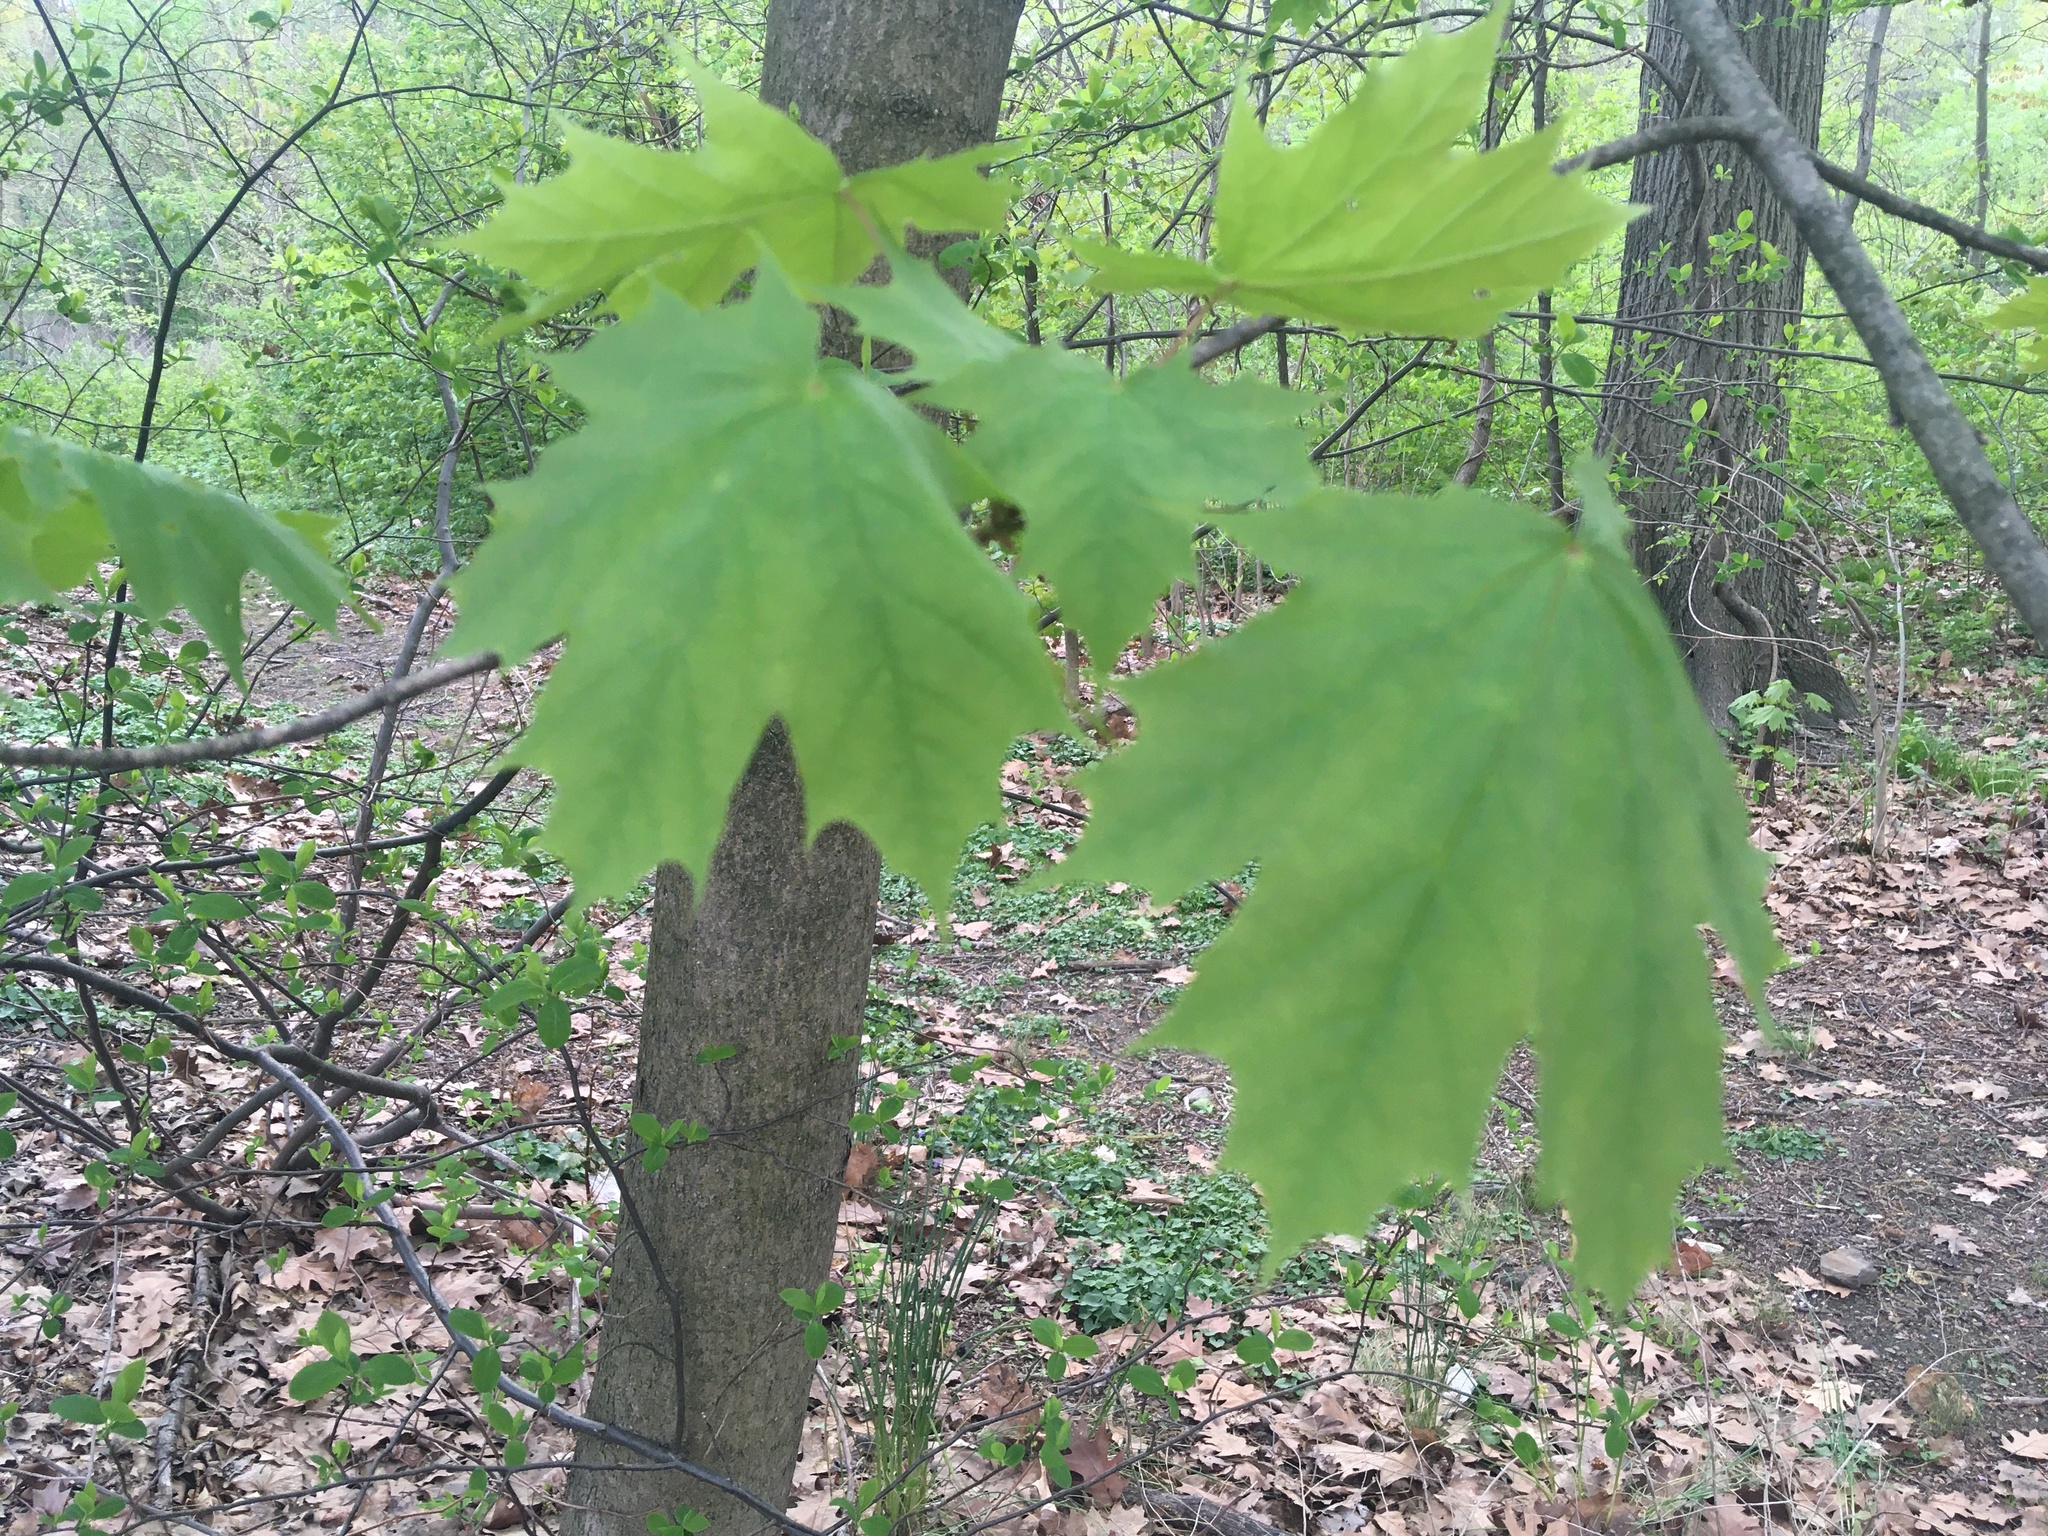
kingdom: Plantae
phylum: Tracheophyta
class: Magnoliopsida
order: Sapindales
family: Sapindaceae
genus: Acer
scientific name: Acer platanoides
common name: Norway maple
